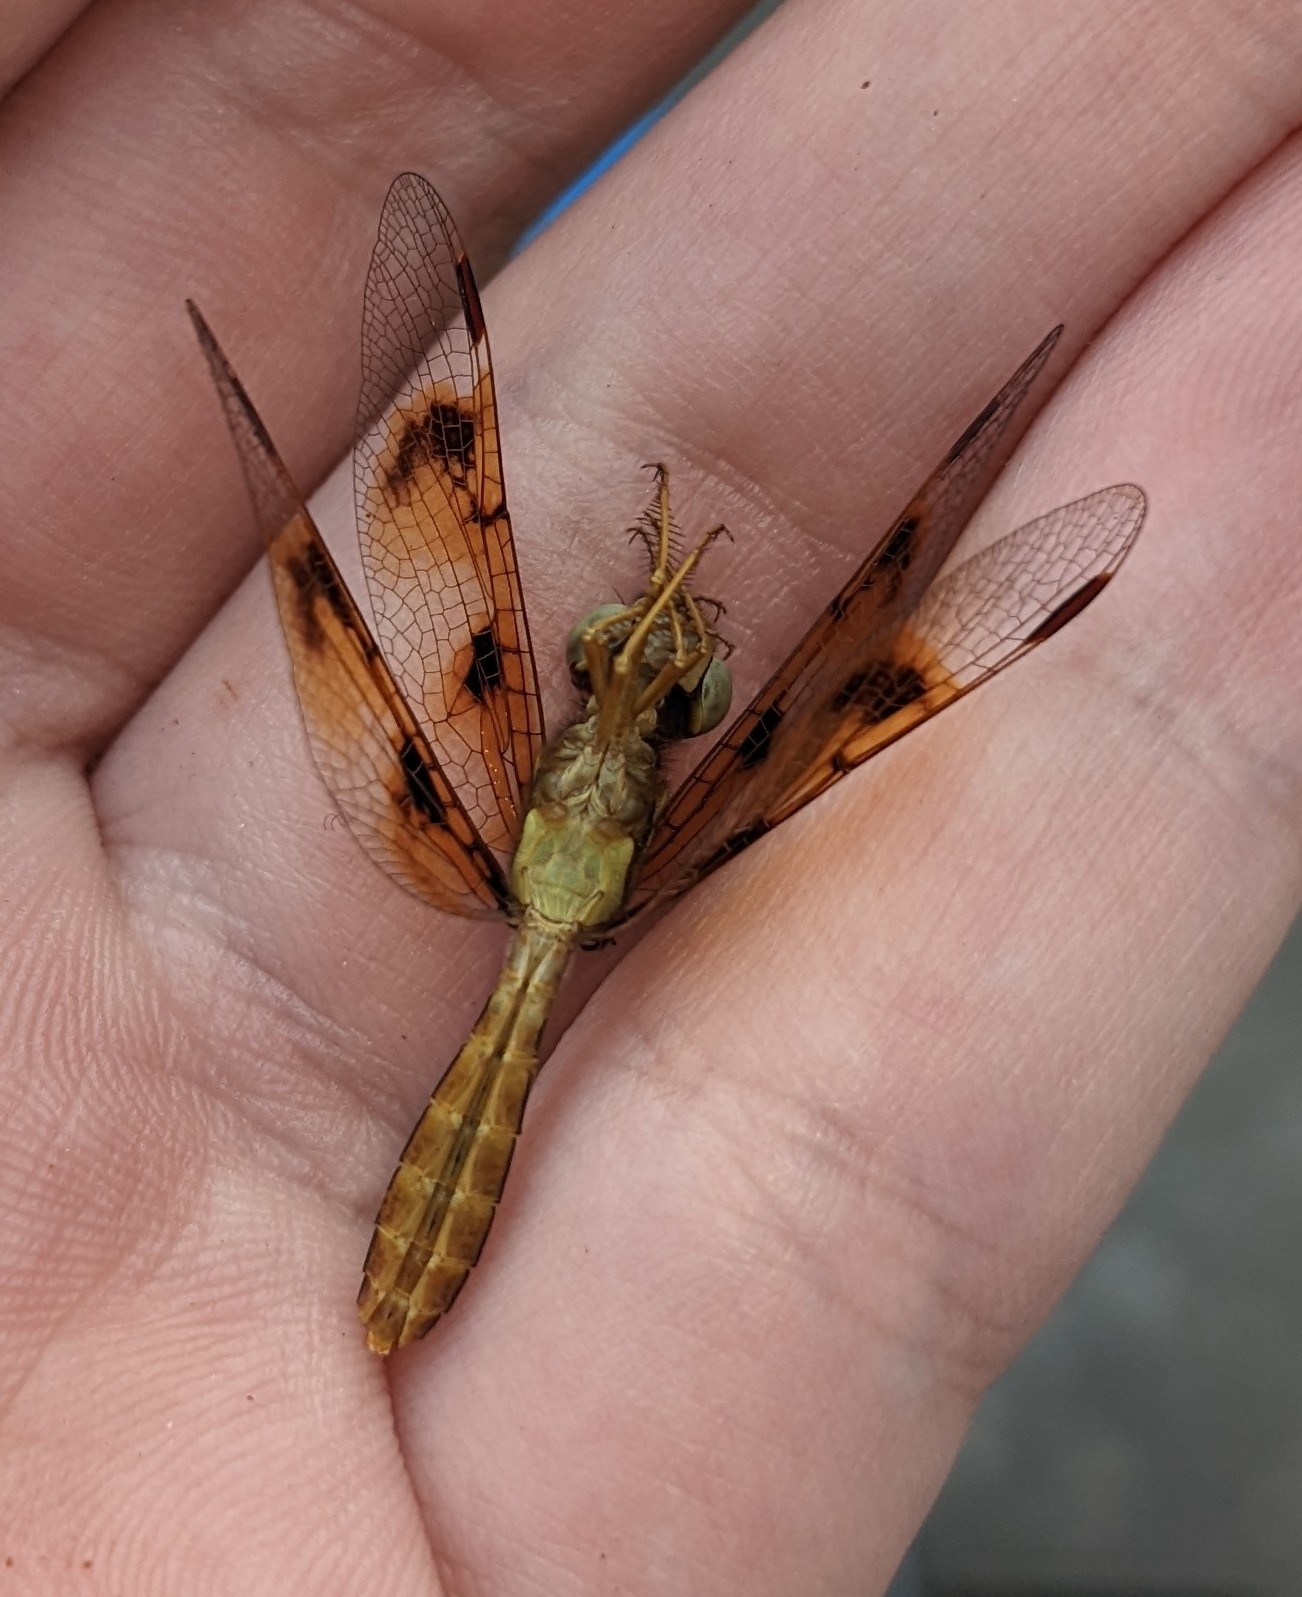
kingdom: Animalia
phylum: Arthropoda
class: Insecta
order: Odonata
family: Libellulidae
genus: Perithemis
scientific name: Perithemis tenera
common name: Eastern amberwing
